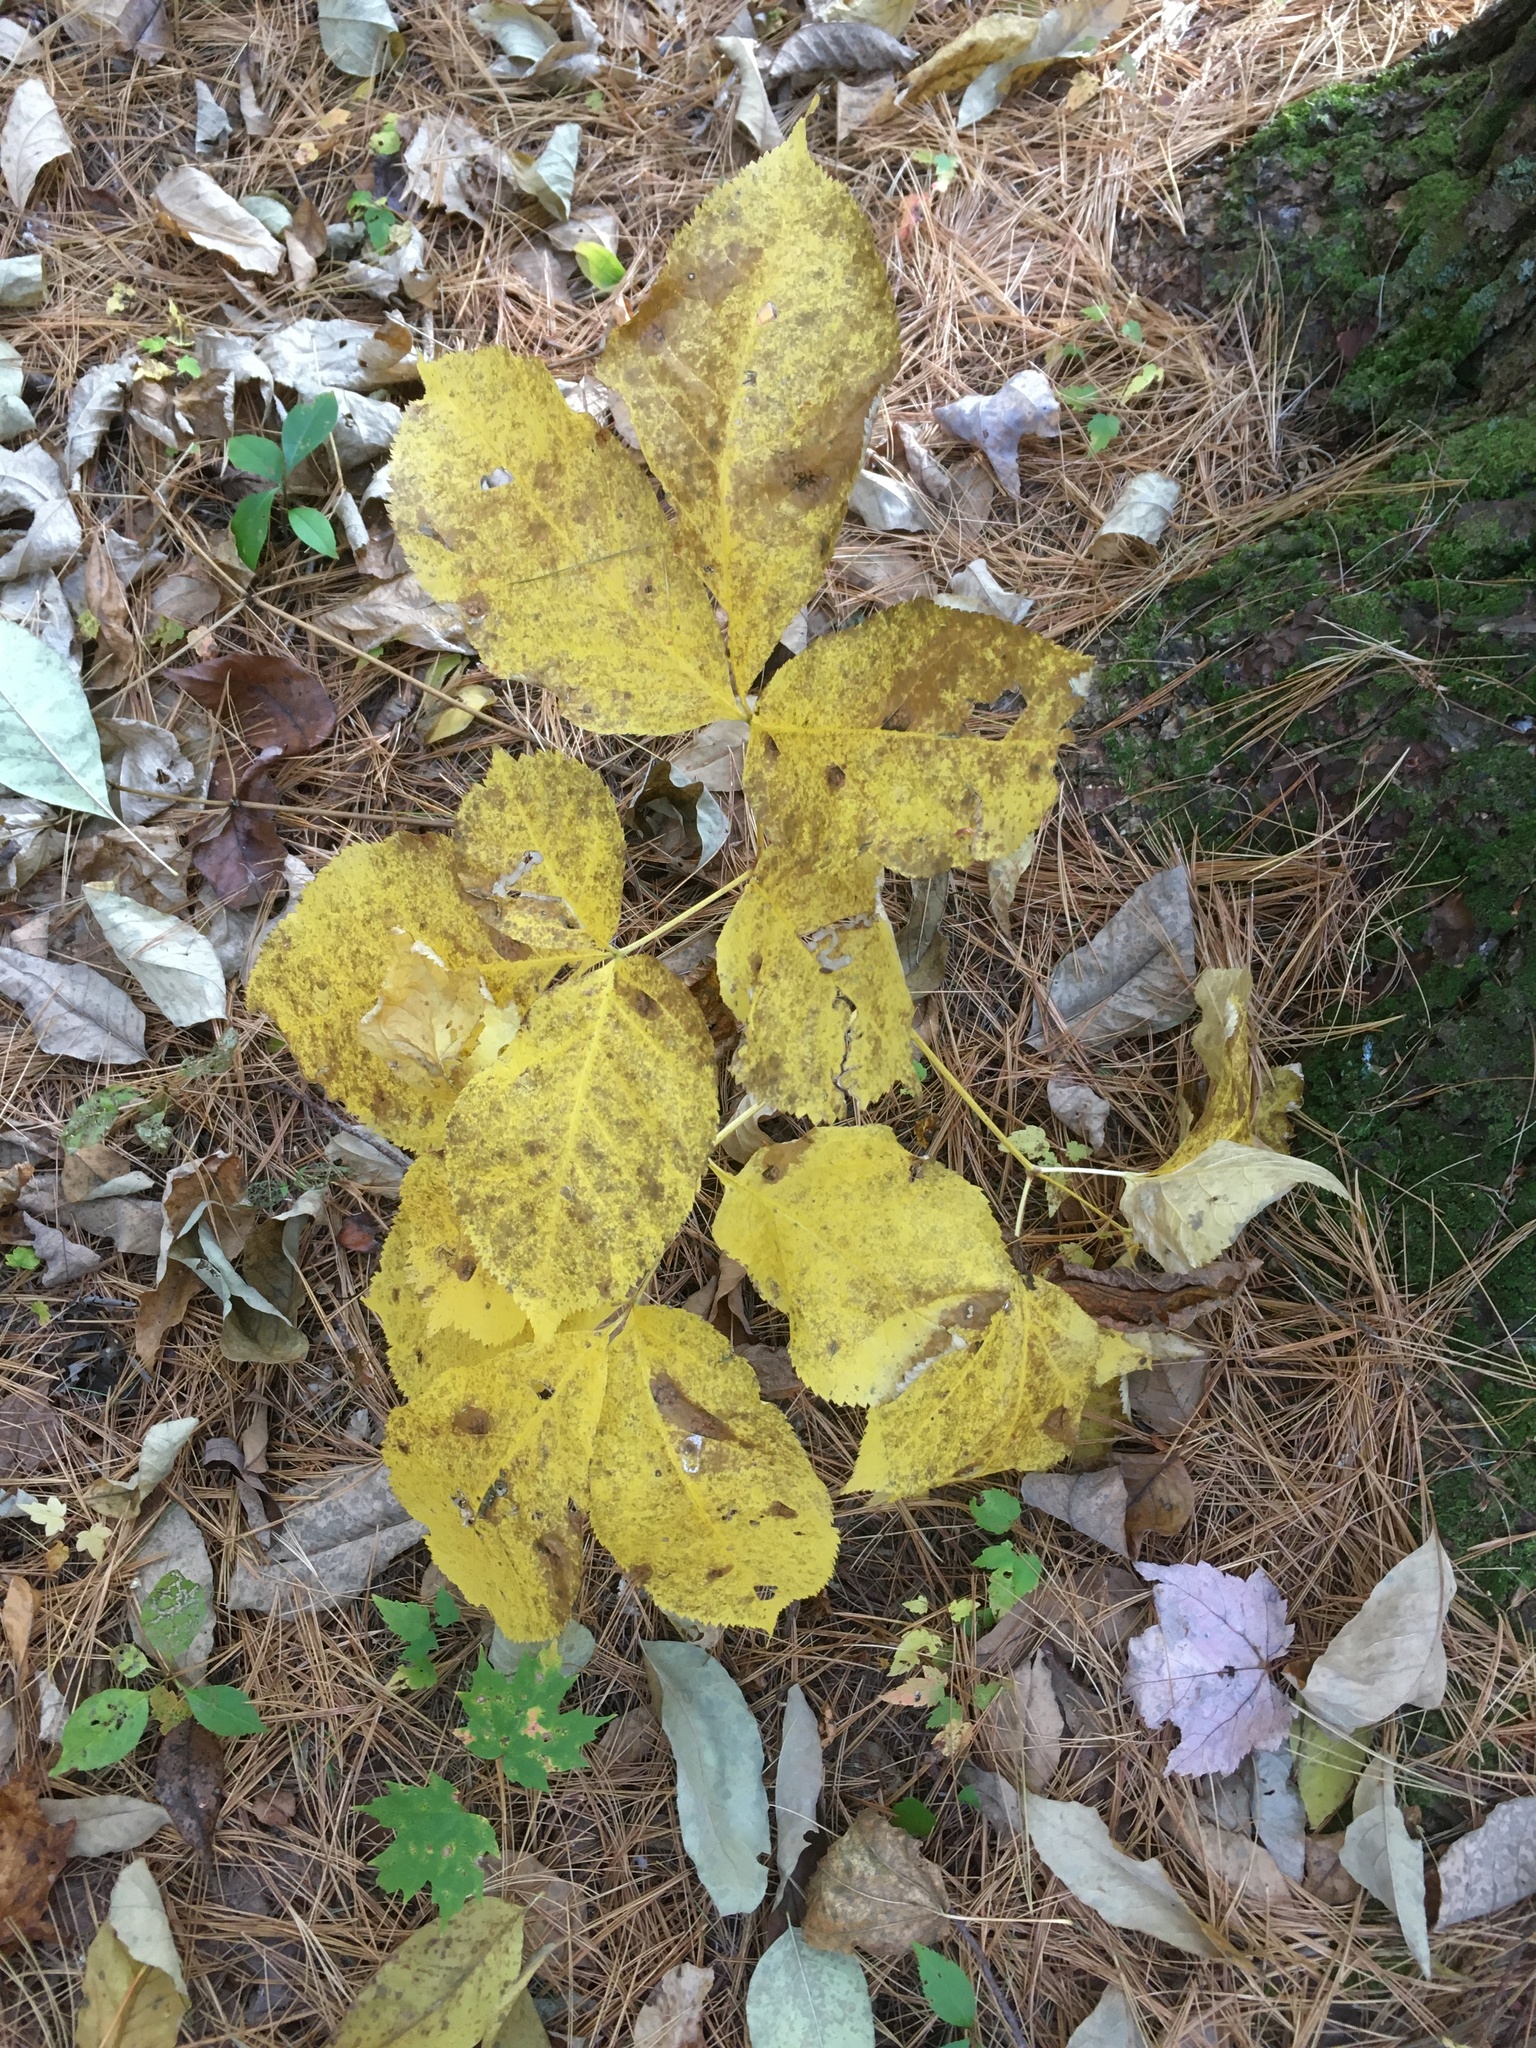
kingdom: Plantae
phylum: Tracheophyta
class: Magnoliopsida
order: Apiales
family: Araliaceae
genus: Aralia
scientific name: Aralia nudicaulis
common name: Wild sarsaparilla
